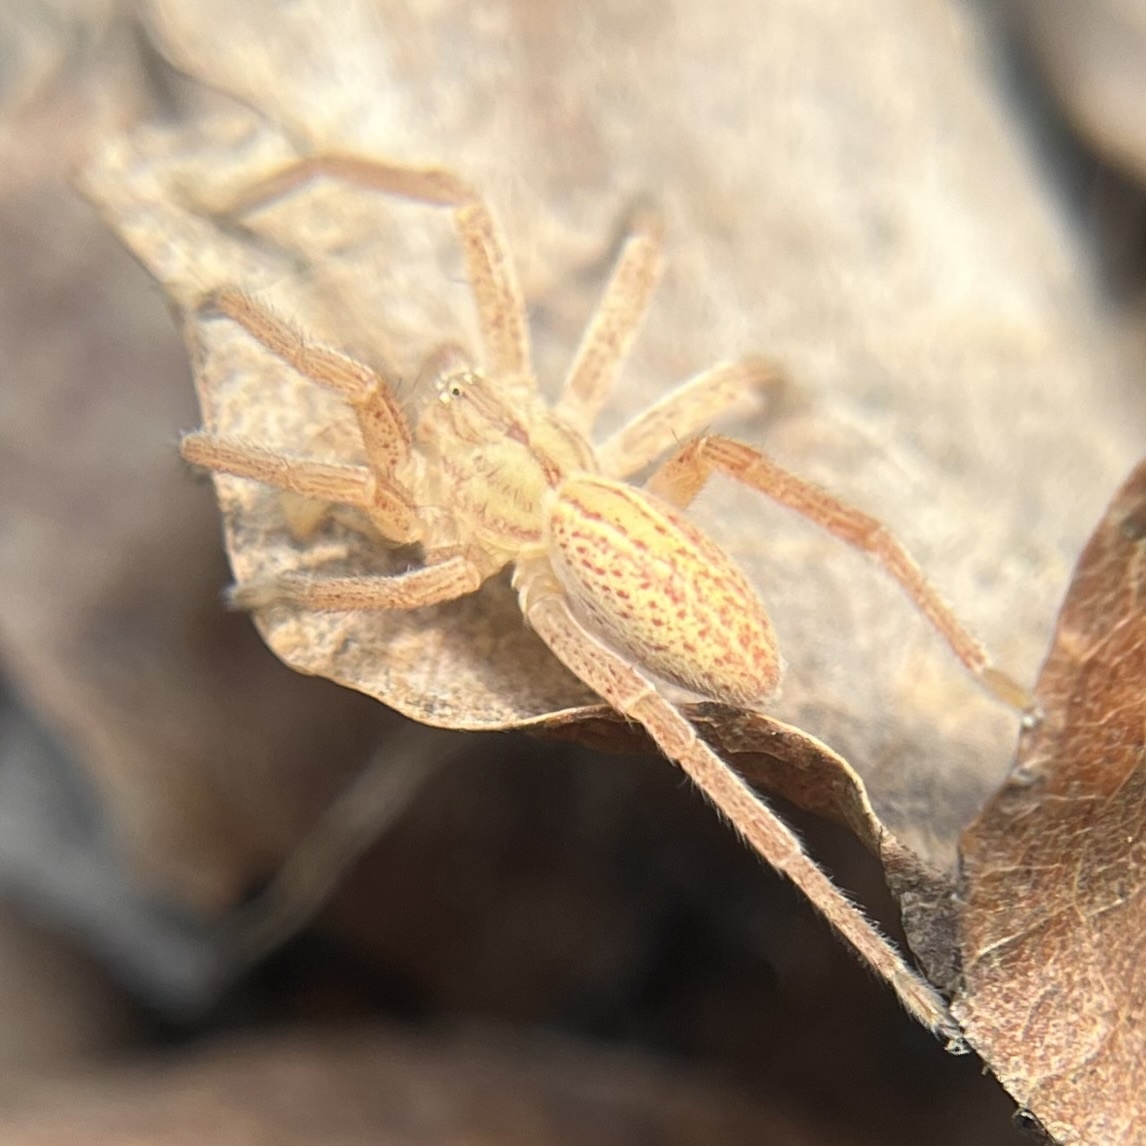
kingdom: Animalia
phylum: Arthropoda
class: Arachnida
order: Araneae
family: Sparassidae
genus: Micrommata
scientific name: Micrommata virescens
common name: Green spider
